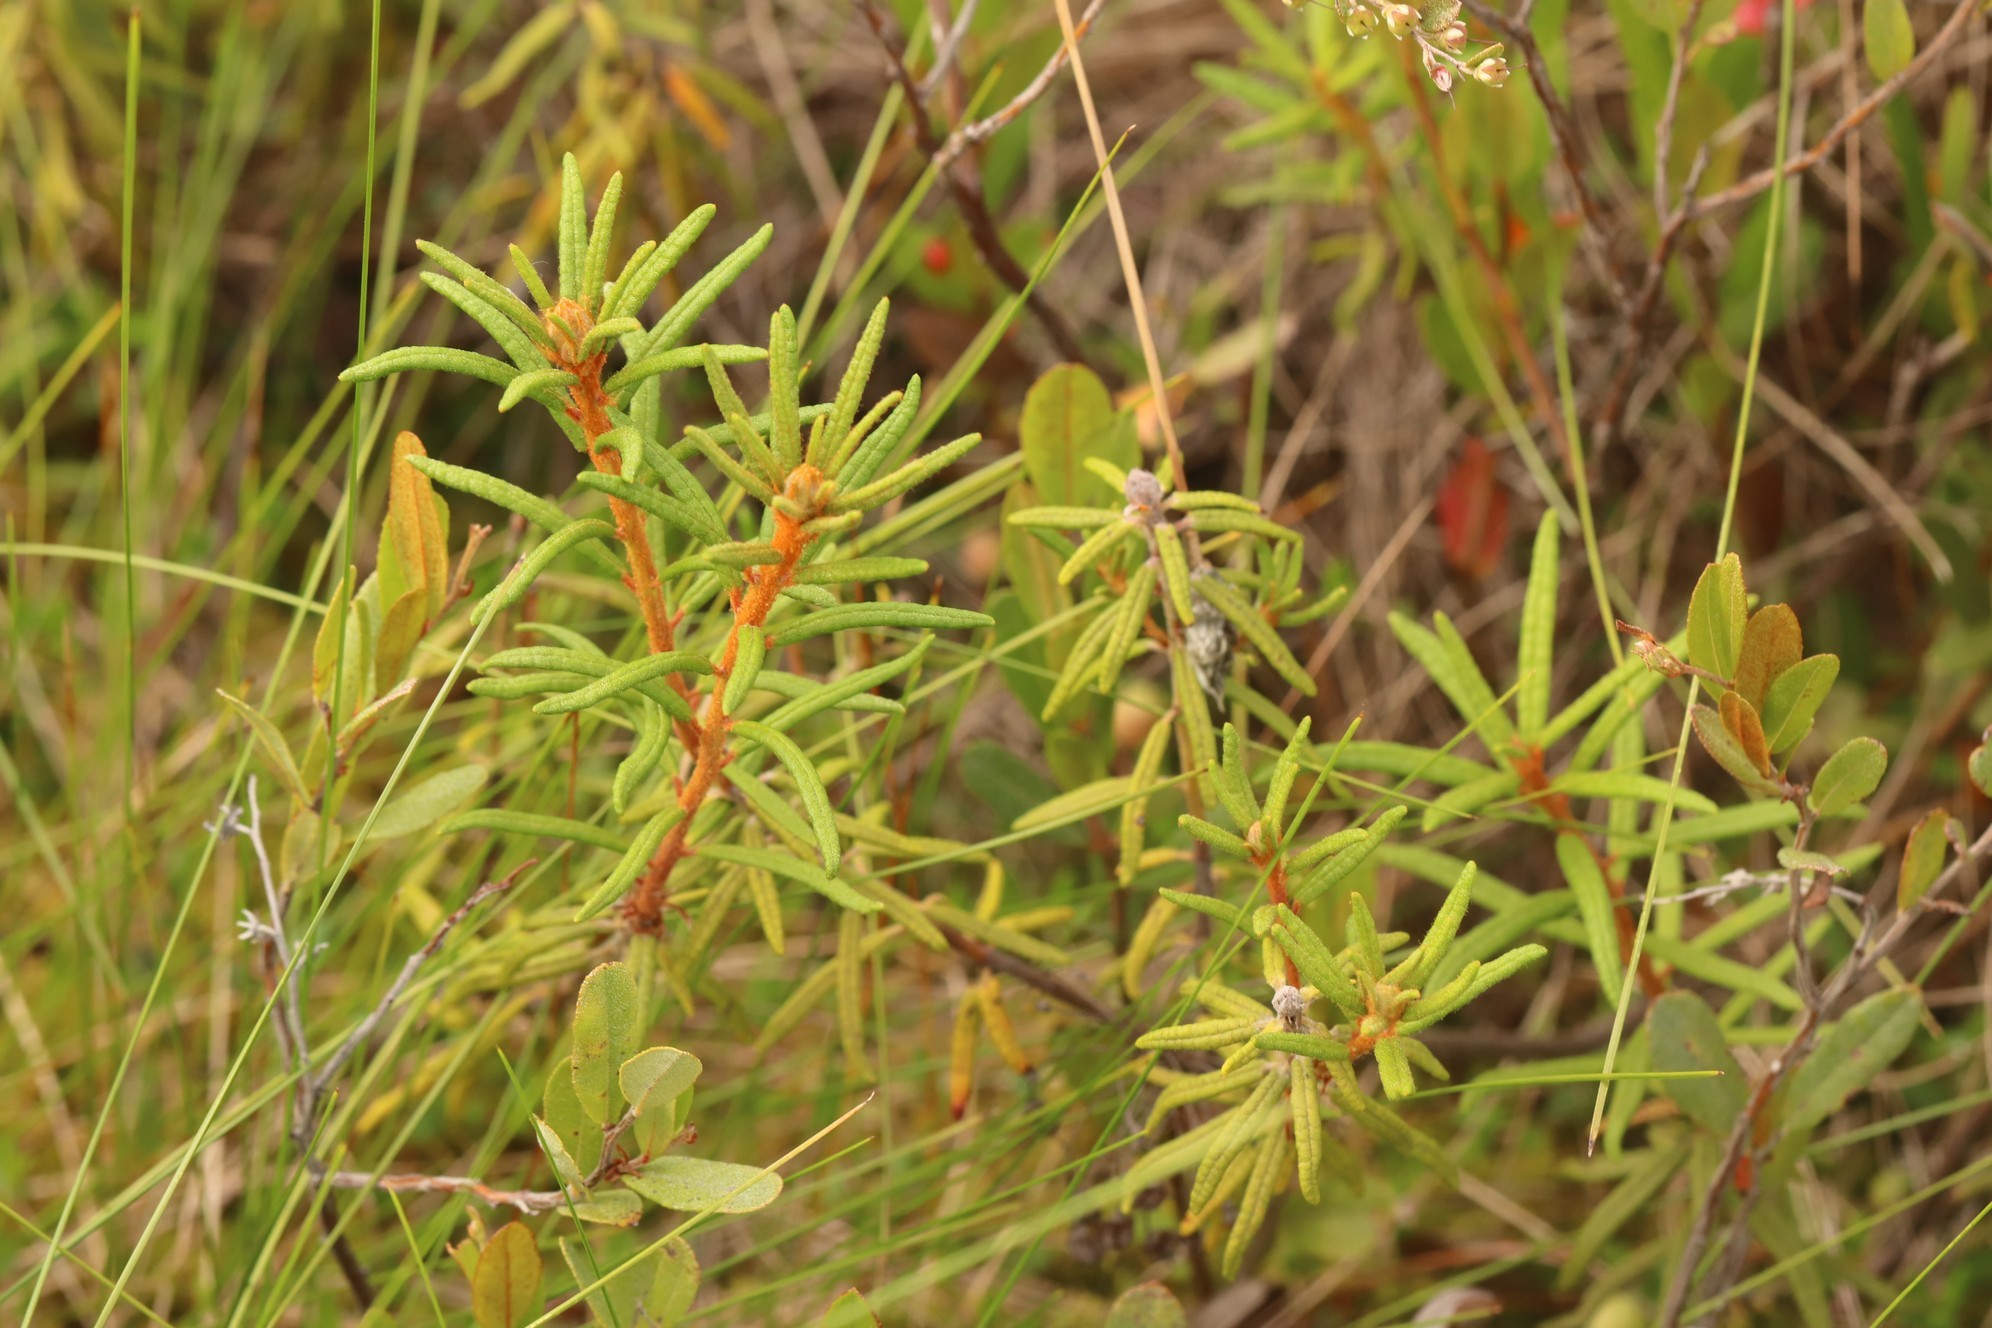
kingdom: Plantae
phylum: Tracheophyta
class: Magnoliopsida
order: Ericales
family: Ericaceae
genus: Rhododendron
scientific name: Rhododendron tomentosum
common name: Marsh labrador tea
